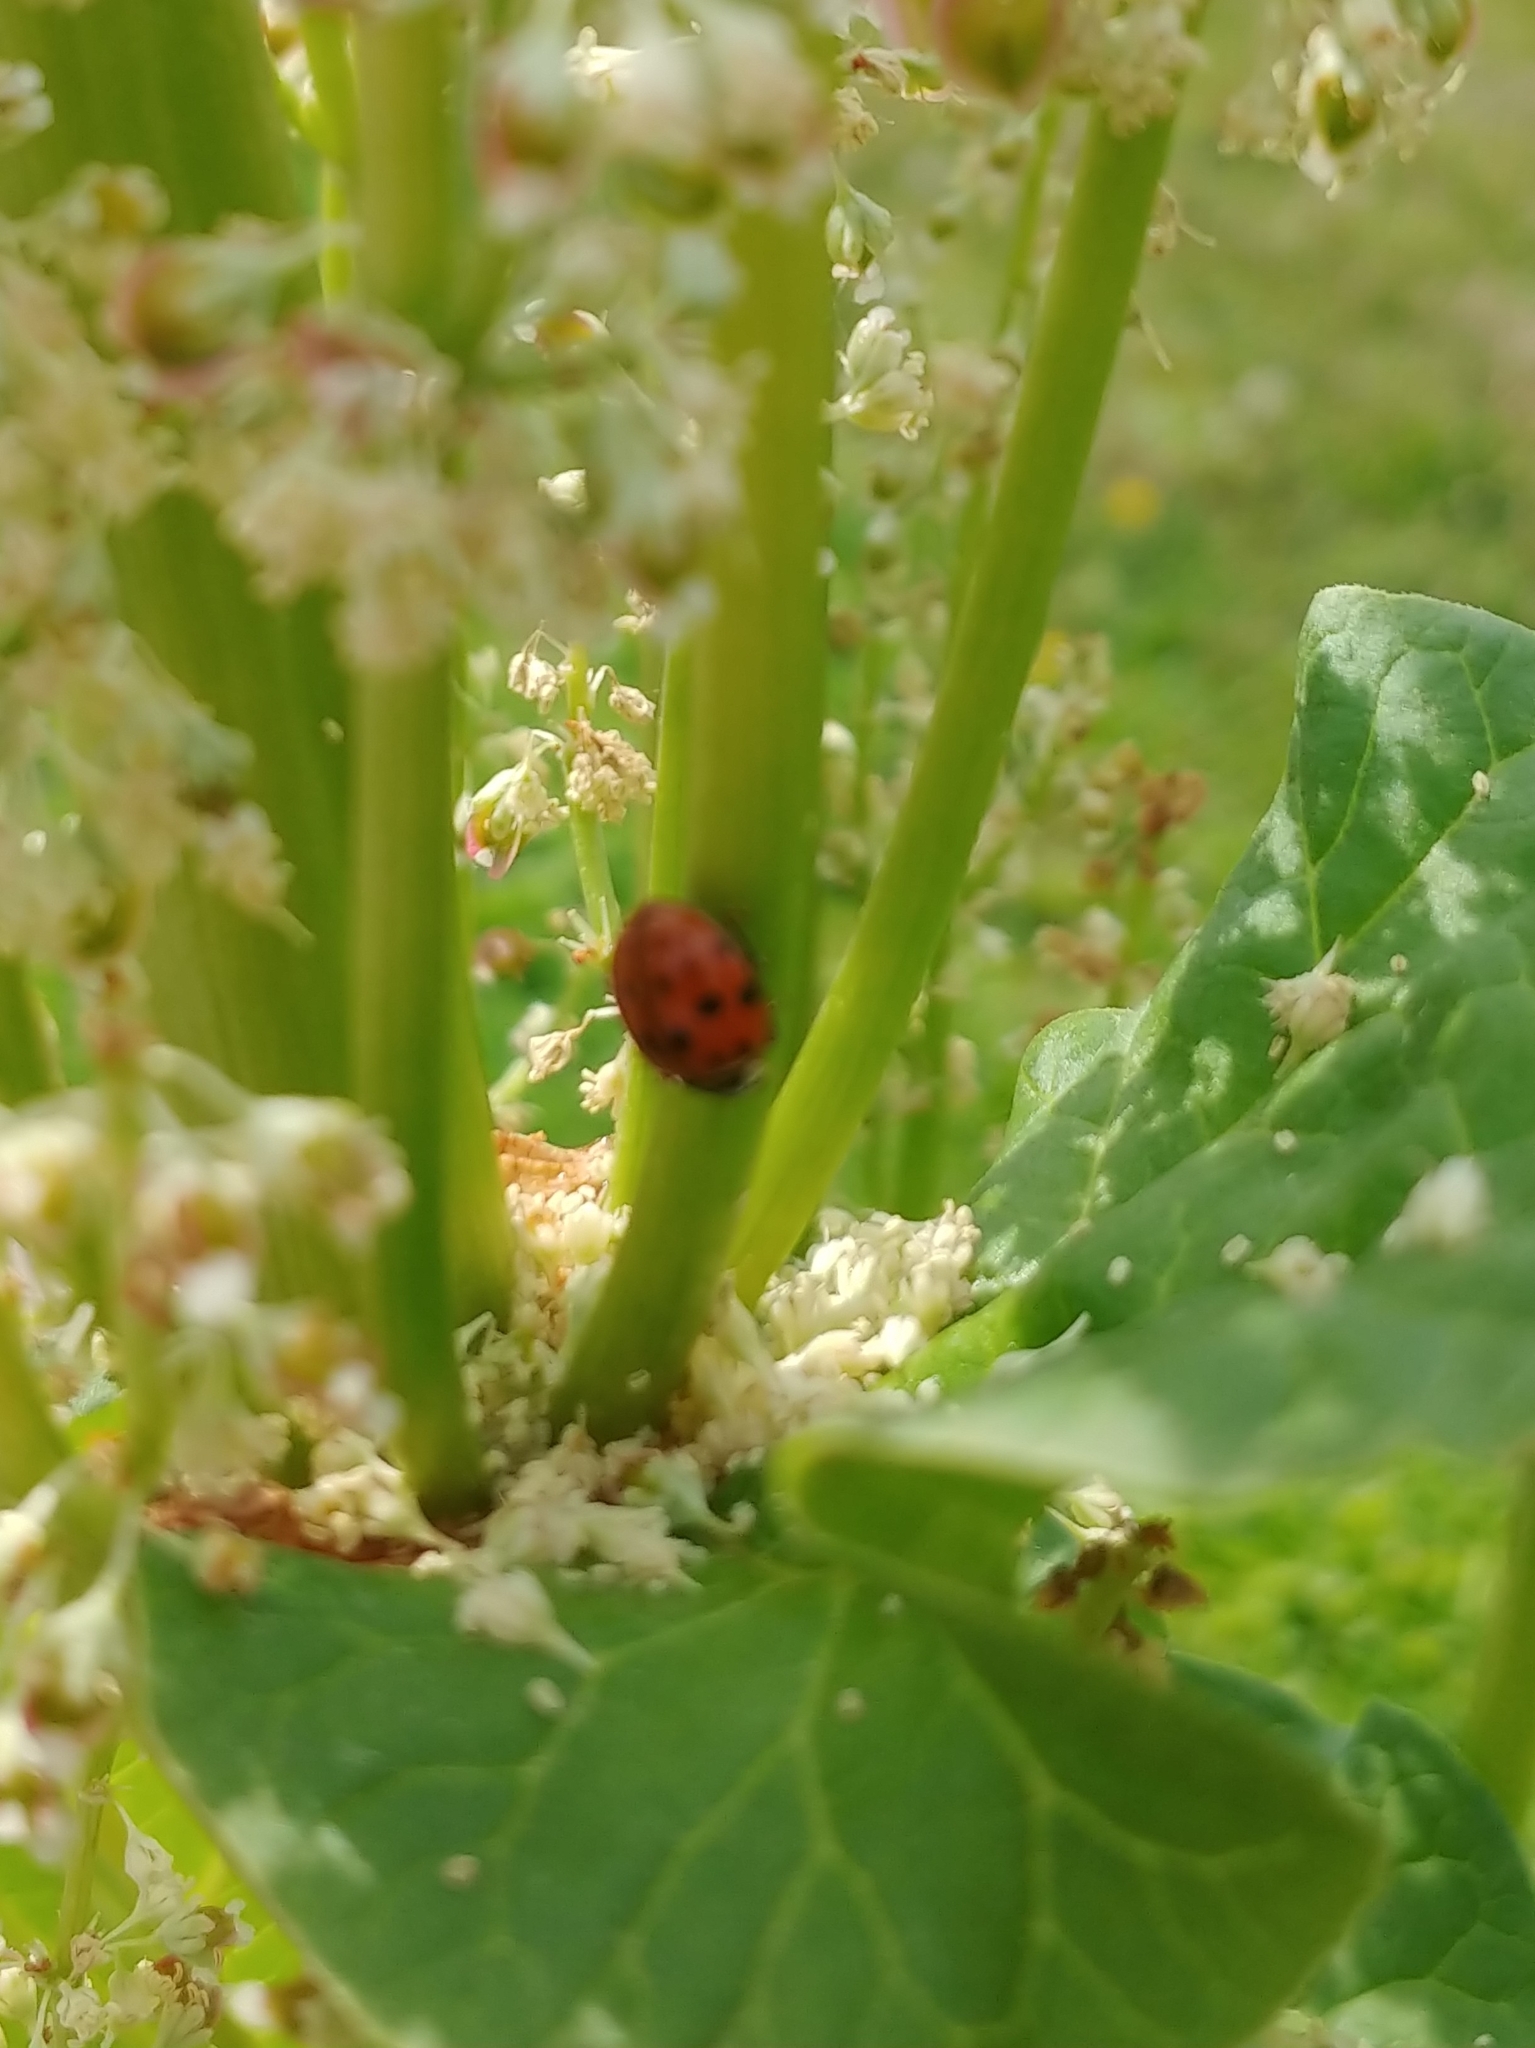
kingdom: Animalia
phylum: Arthropoda
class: Insecta
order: Coleoptera
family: Coccinellidae
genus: Harmonia
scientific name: Harmonia axyridis
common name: Harlequin ladybird
